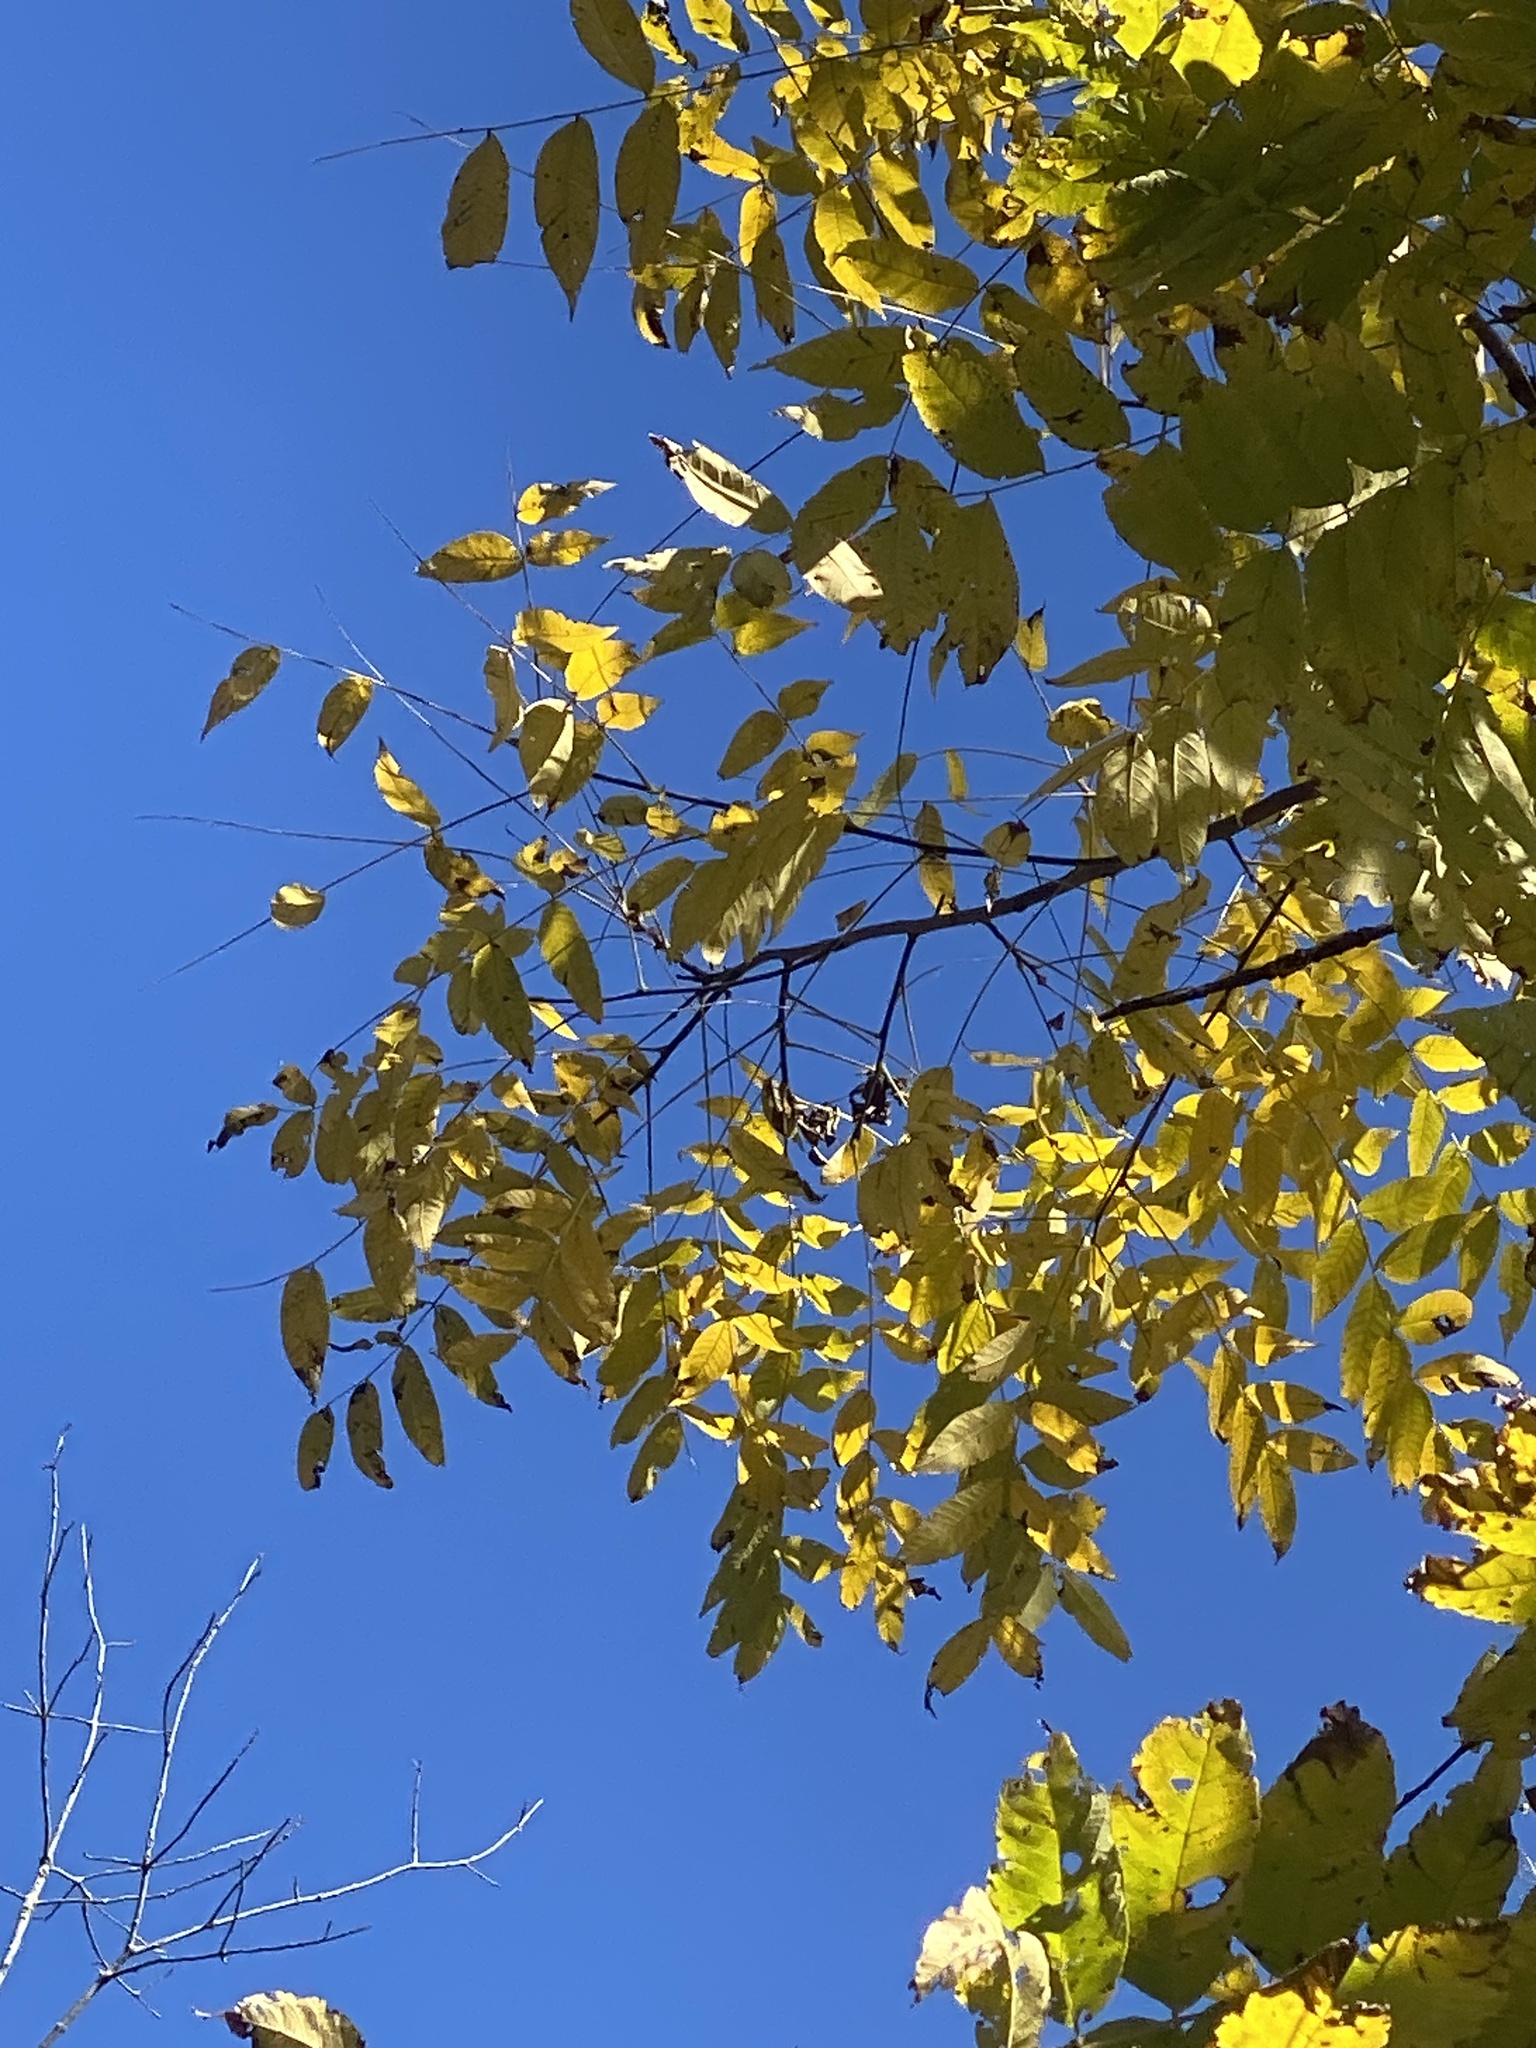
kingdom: Plantae
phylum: Tracheophyta
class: Magnoliopsida
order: Fagales
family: Juglandaceae
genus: Juglans
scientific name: Juglans nigra
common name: Black walnut
